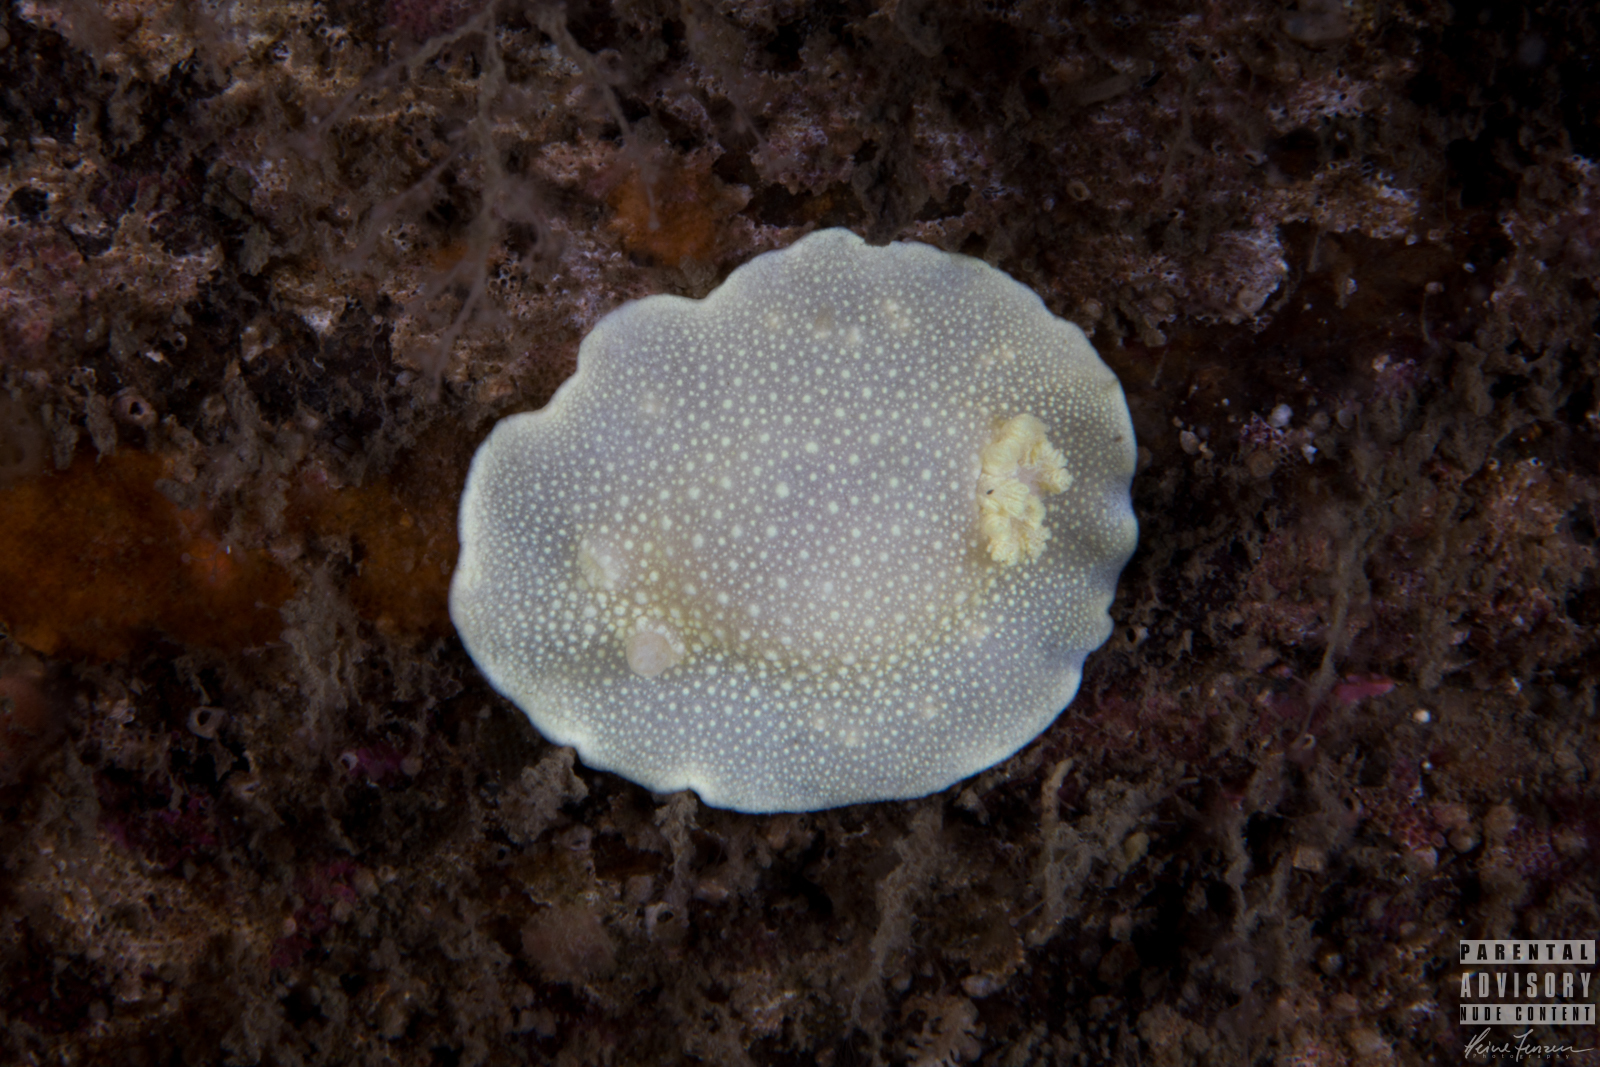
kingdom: Animalia
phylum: Mollusca
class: Gastropoda
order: Nudibranchia
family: Cadlinidae
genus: Cadlina
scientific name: Cadlina laevis
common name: White atlantic cadlina
